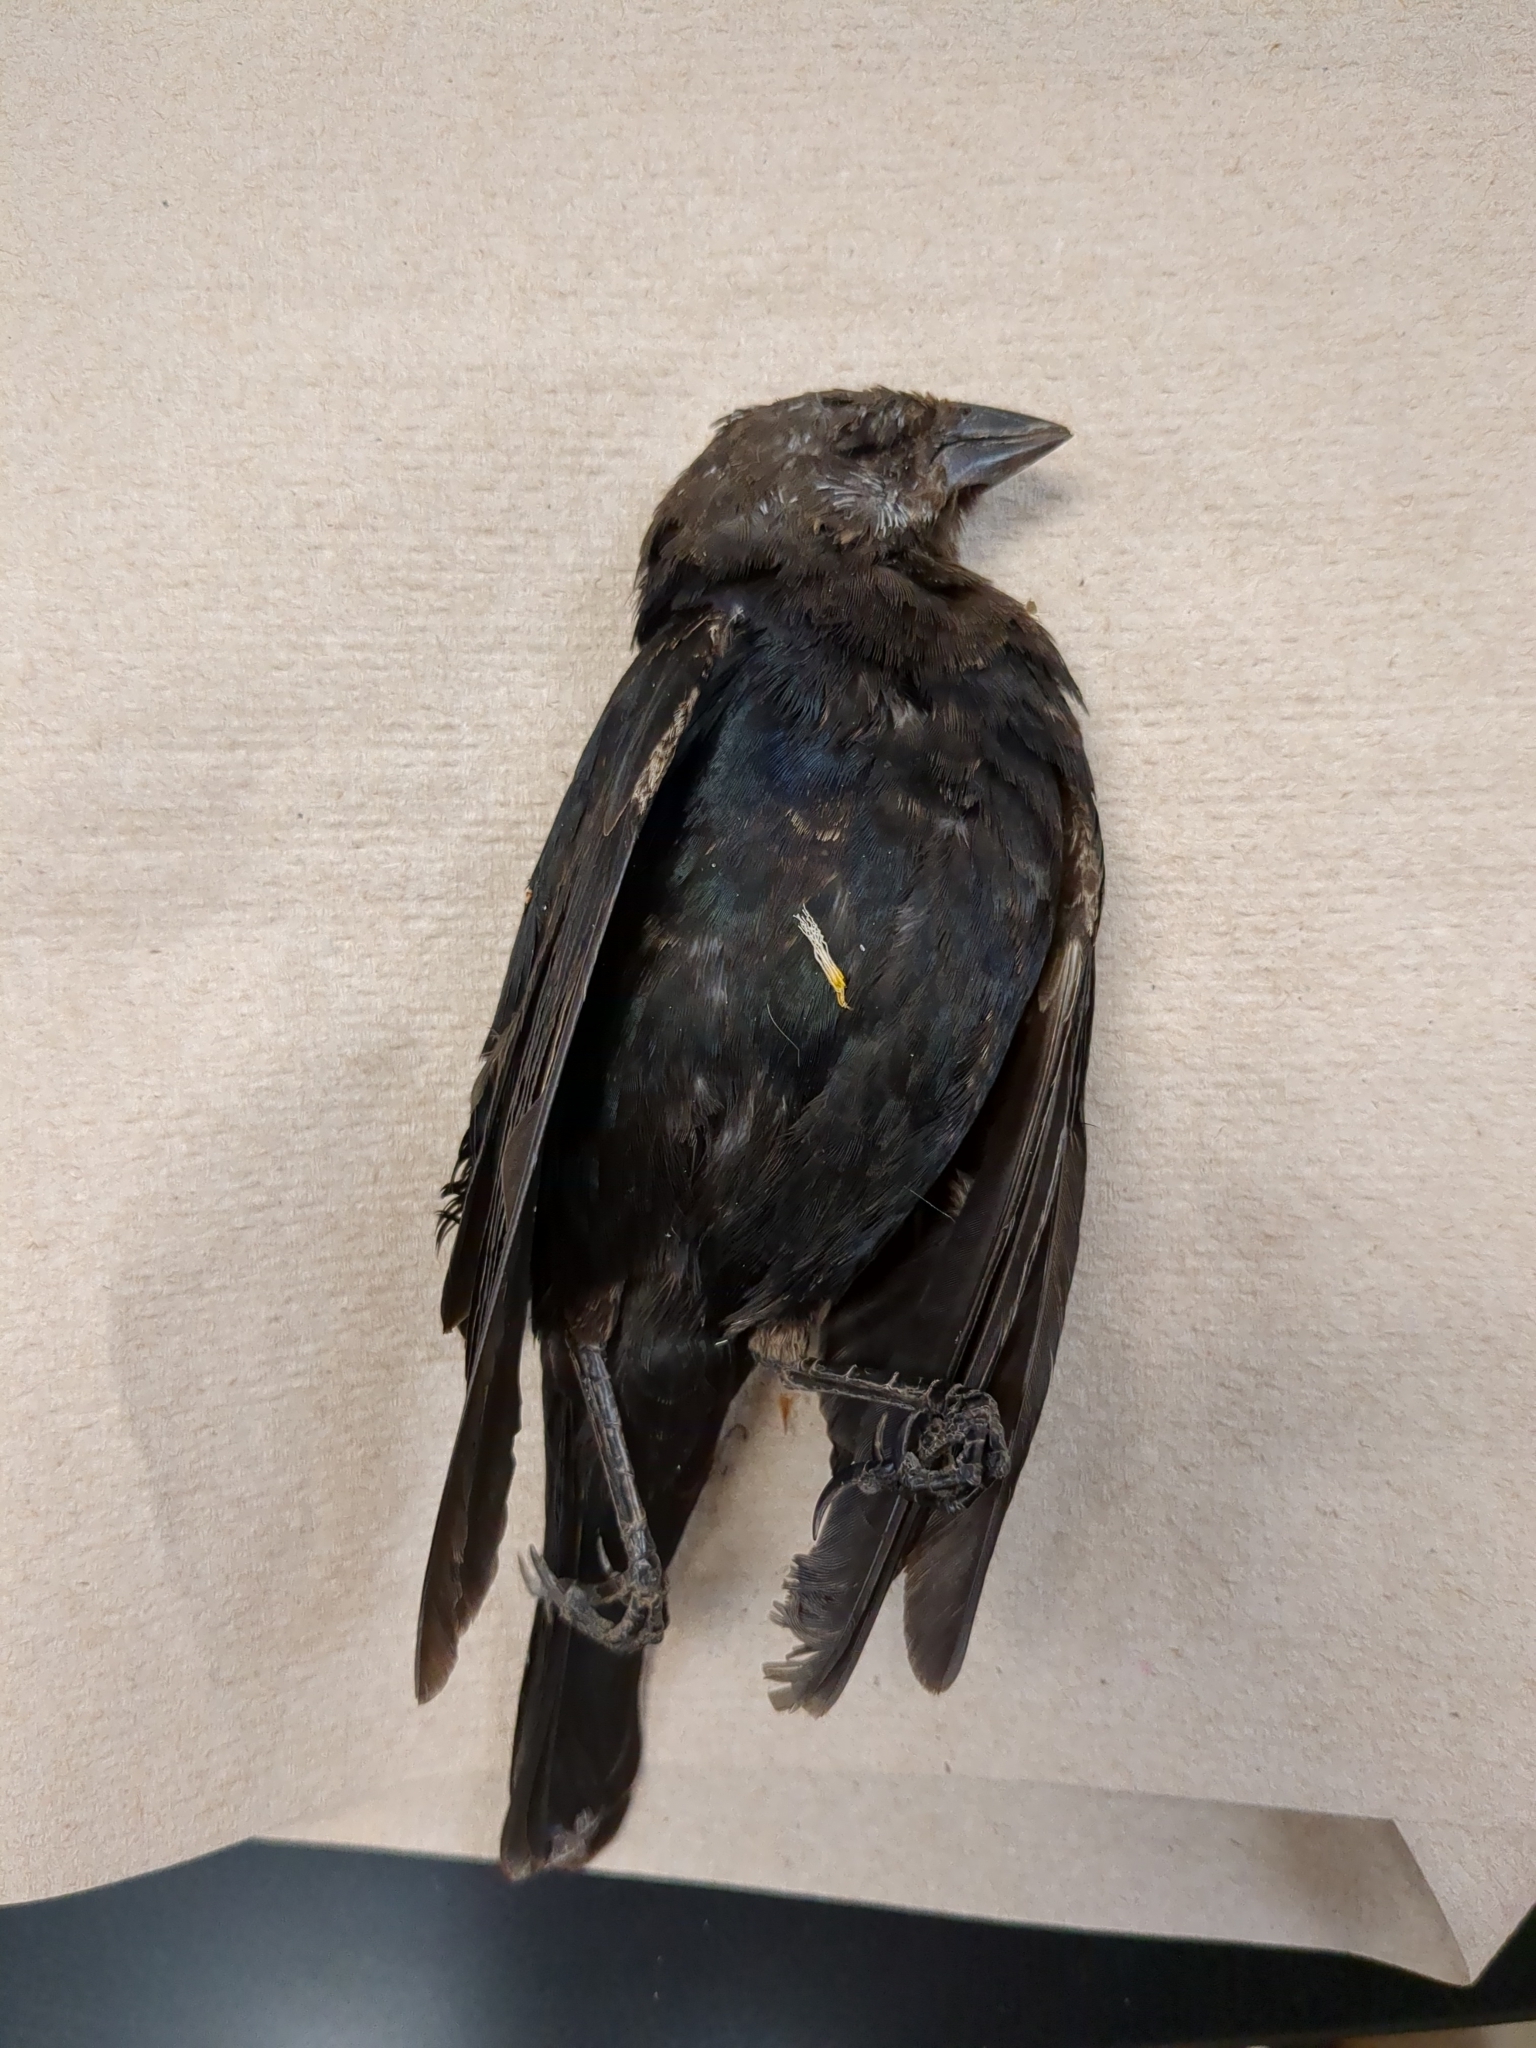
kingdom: Animalia
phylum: Chordata
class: Aves
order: Passeriformes
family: Icteridae
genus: Molothrus
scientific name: Molothrus ater
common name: Brown-headed cowbird
